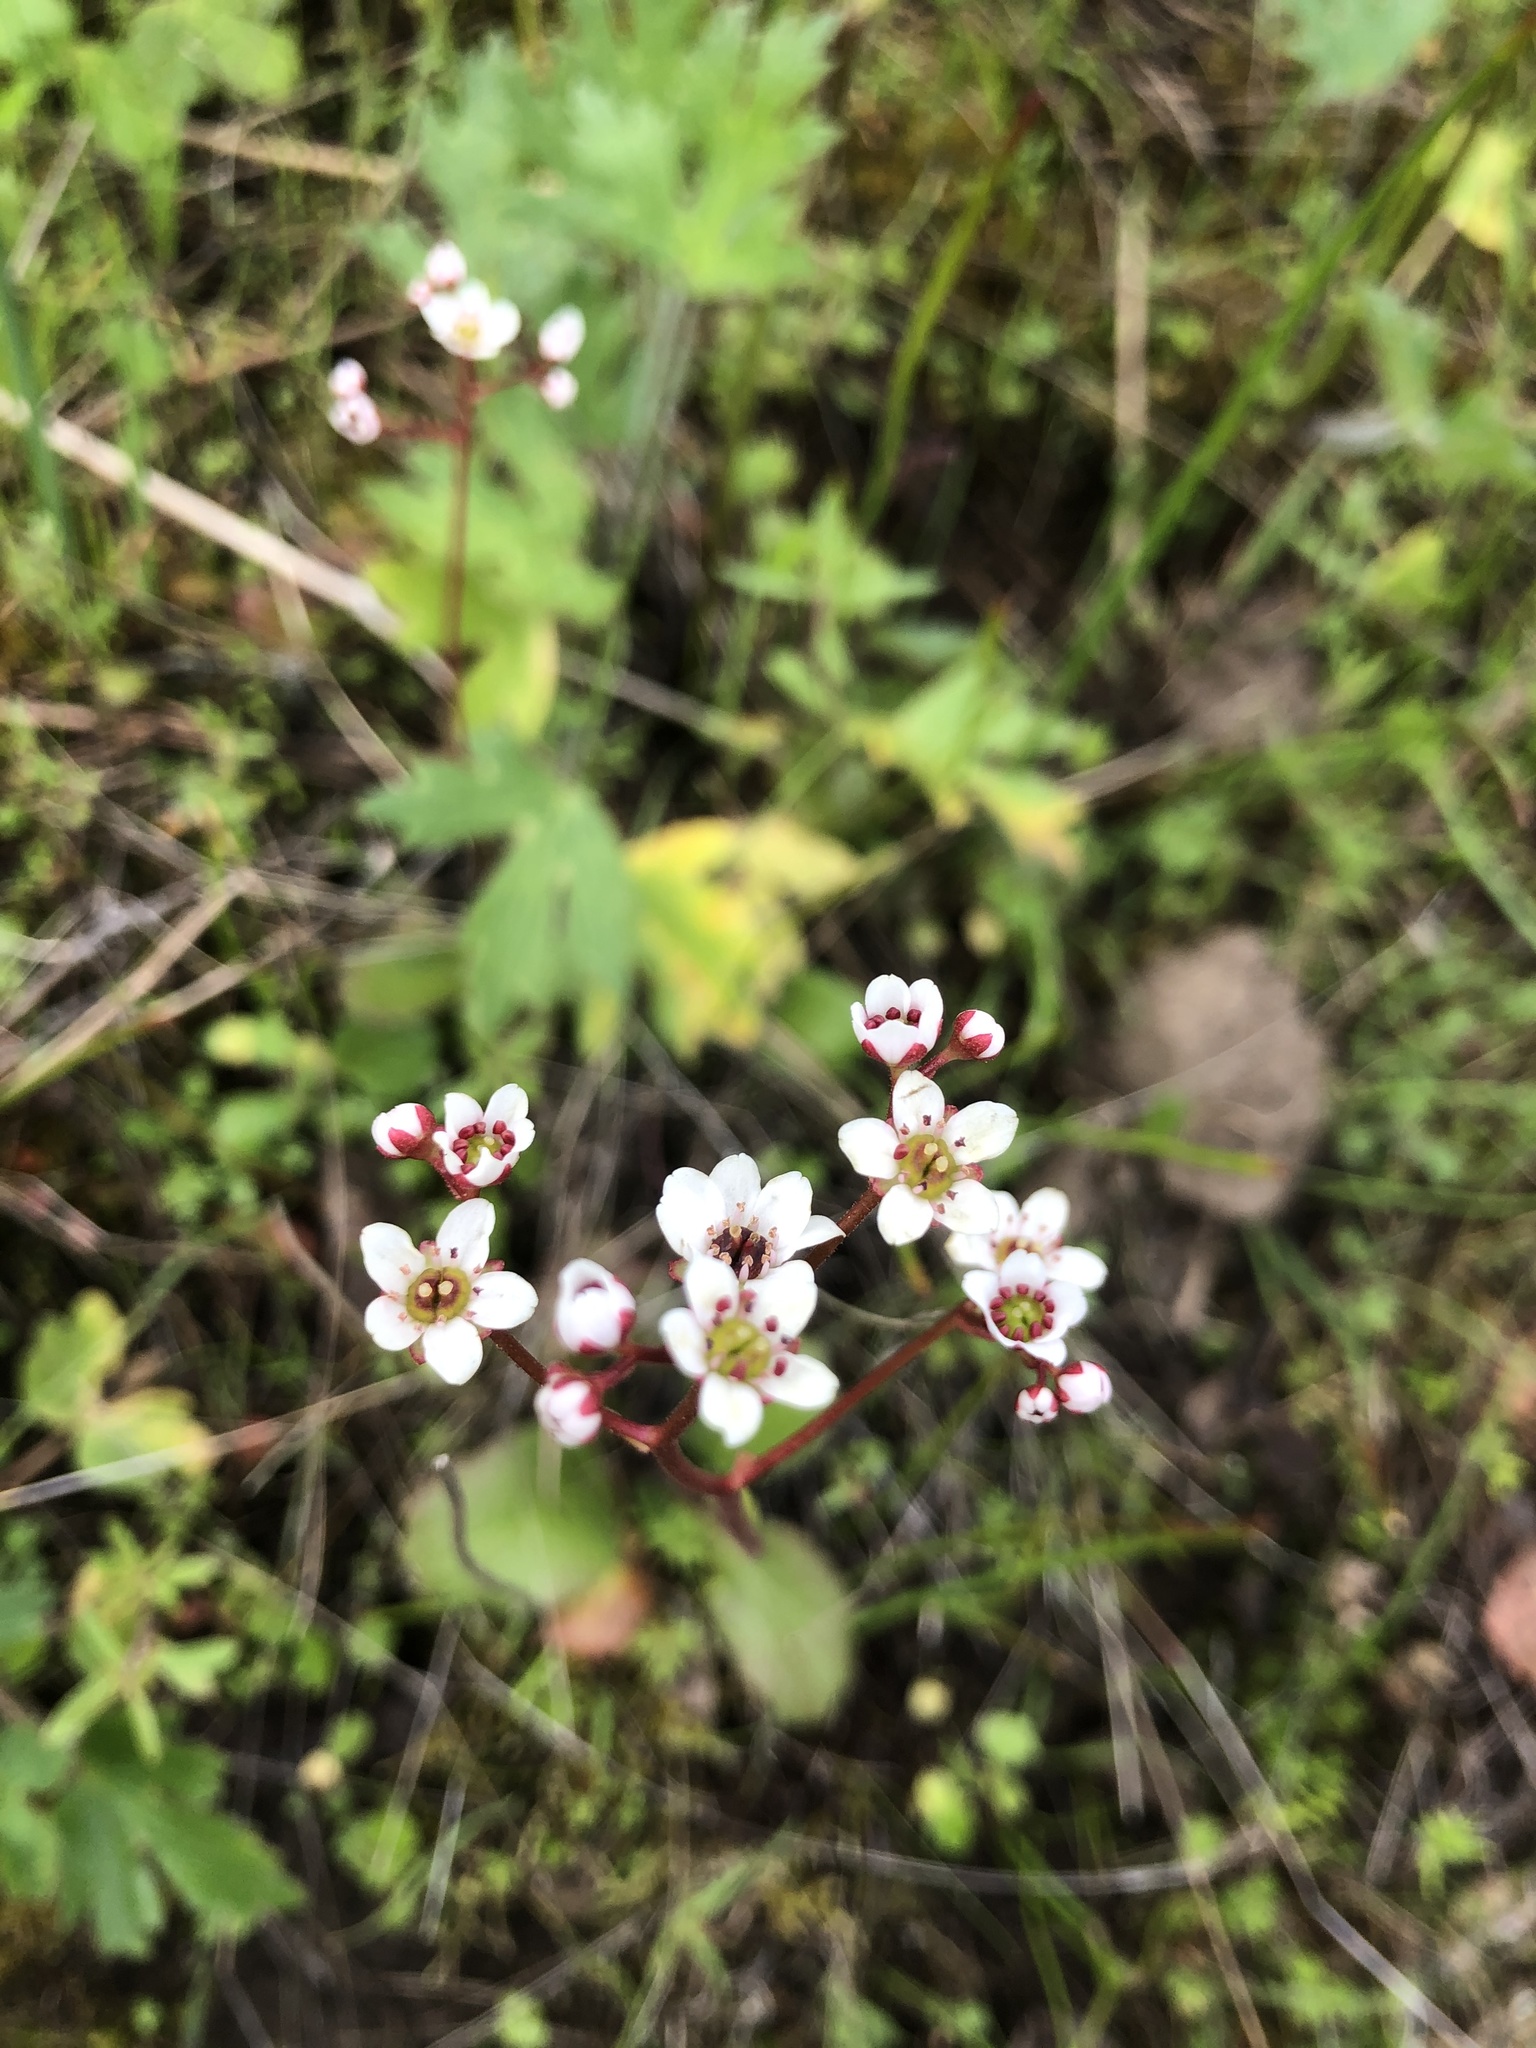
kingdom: Plantae
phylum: Tracheophyta
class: Magnoliopsida
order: Saxifragales
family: Saxifragaceae
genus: Micranthes
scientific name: Micranthes californica
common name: California saxifrage
